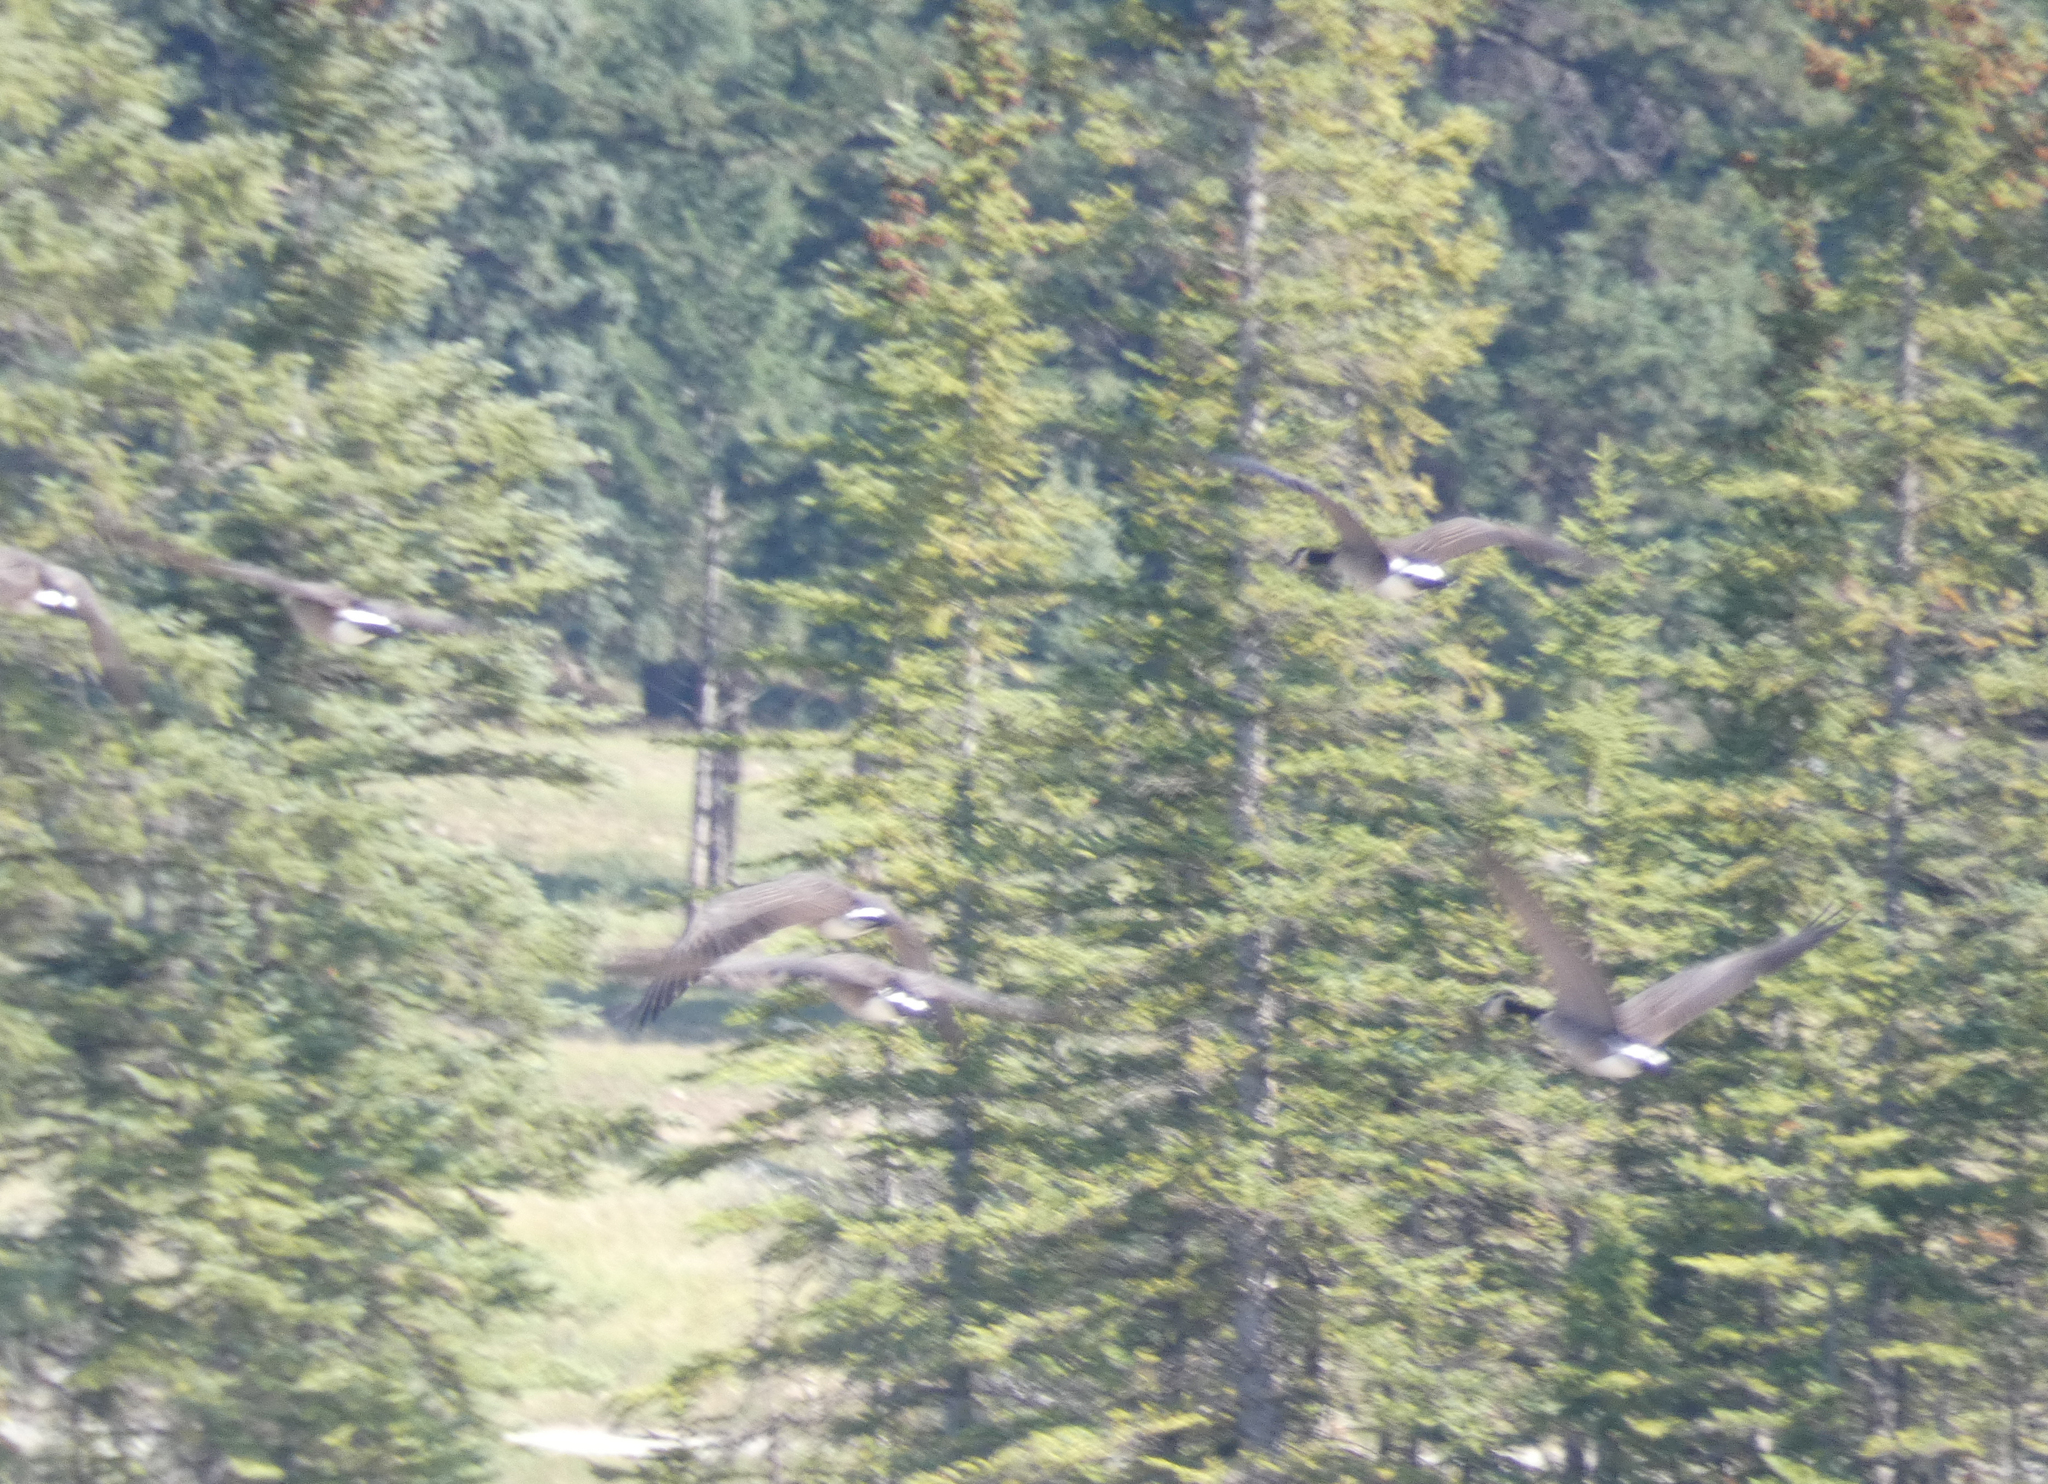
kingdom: Animalia
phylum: Chordata
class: Aves
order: Anseriformes
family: Anatidae
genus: Branta
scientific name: Branta canadensis
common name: Canada goose
